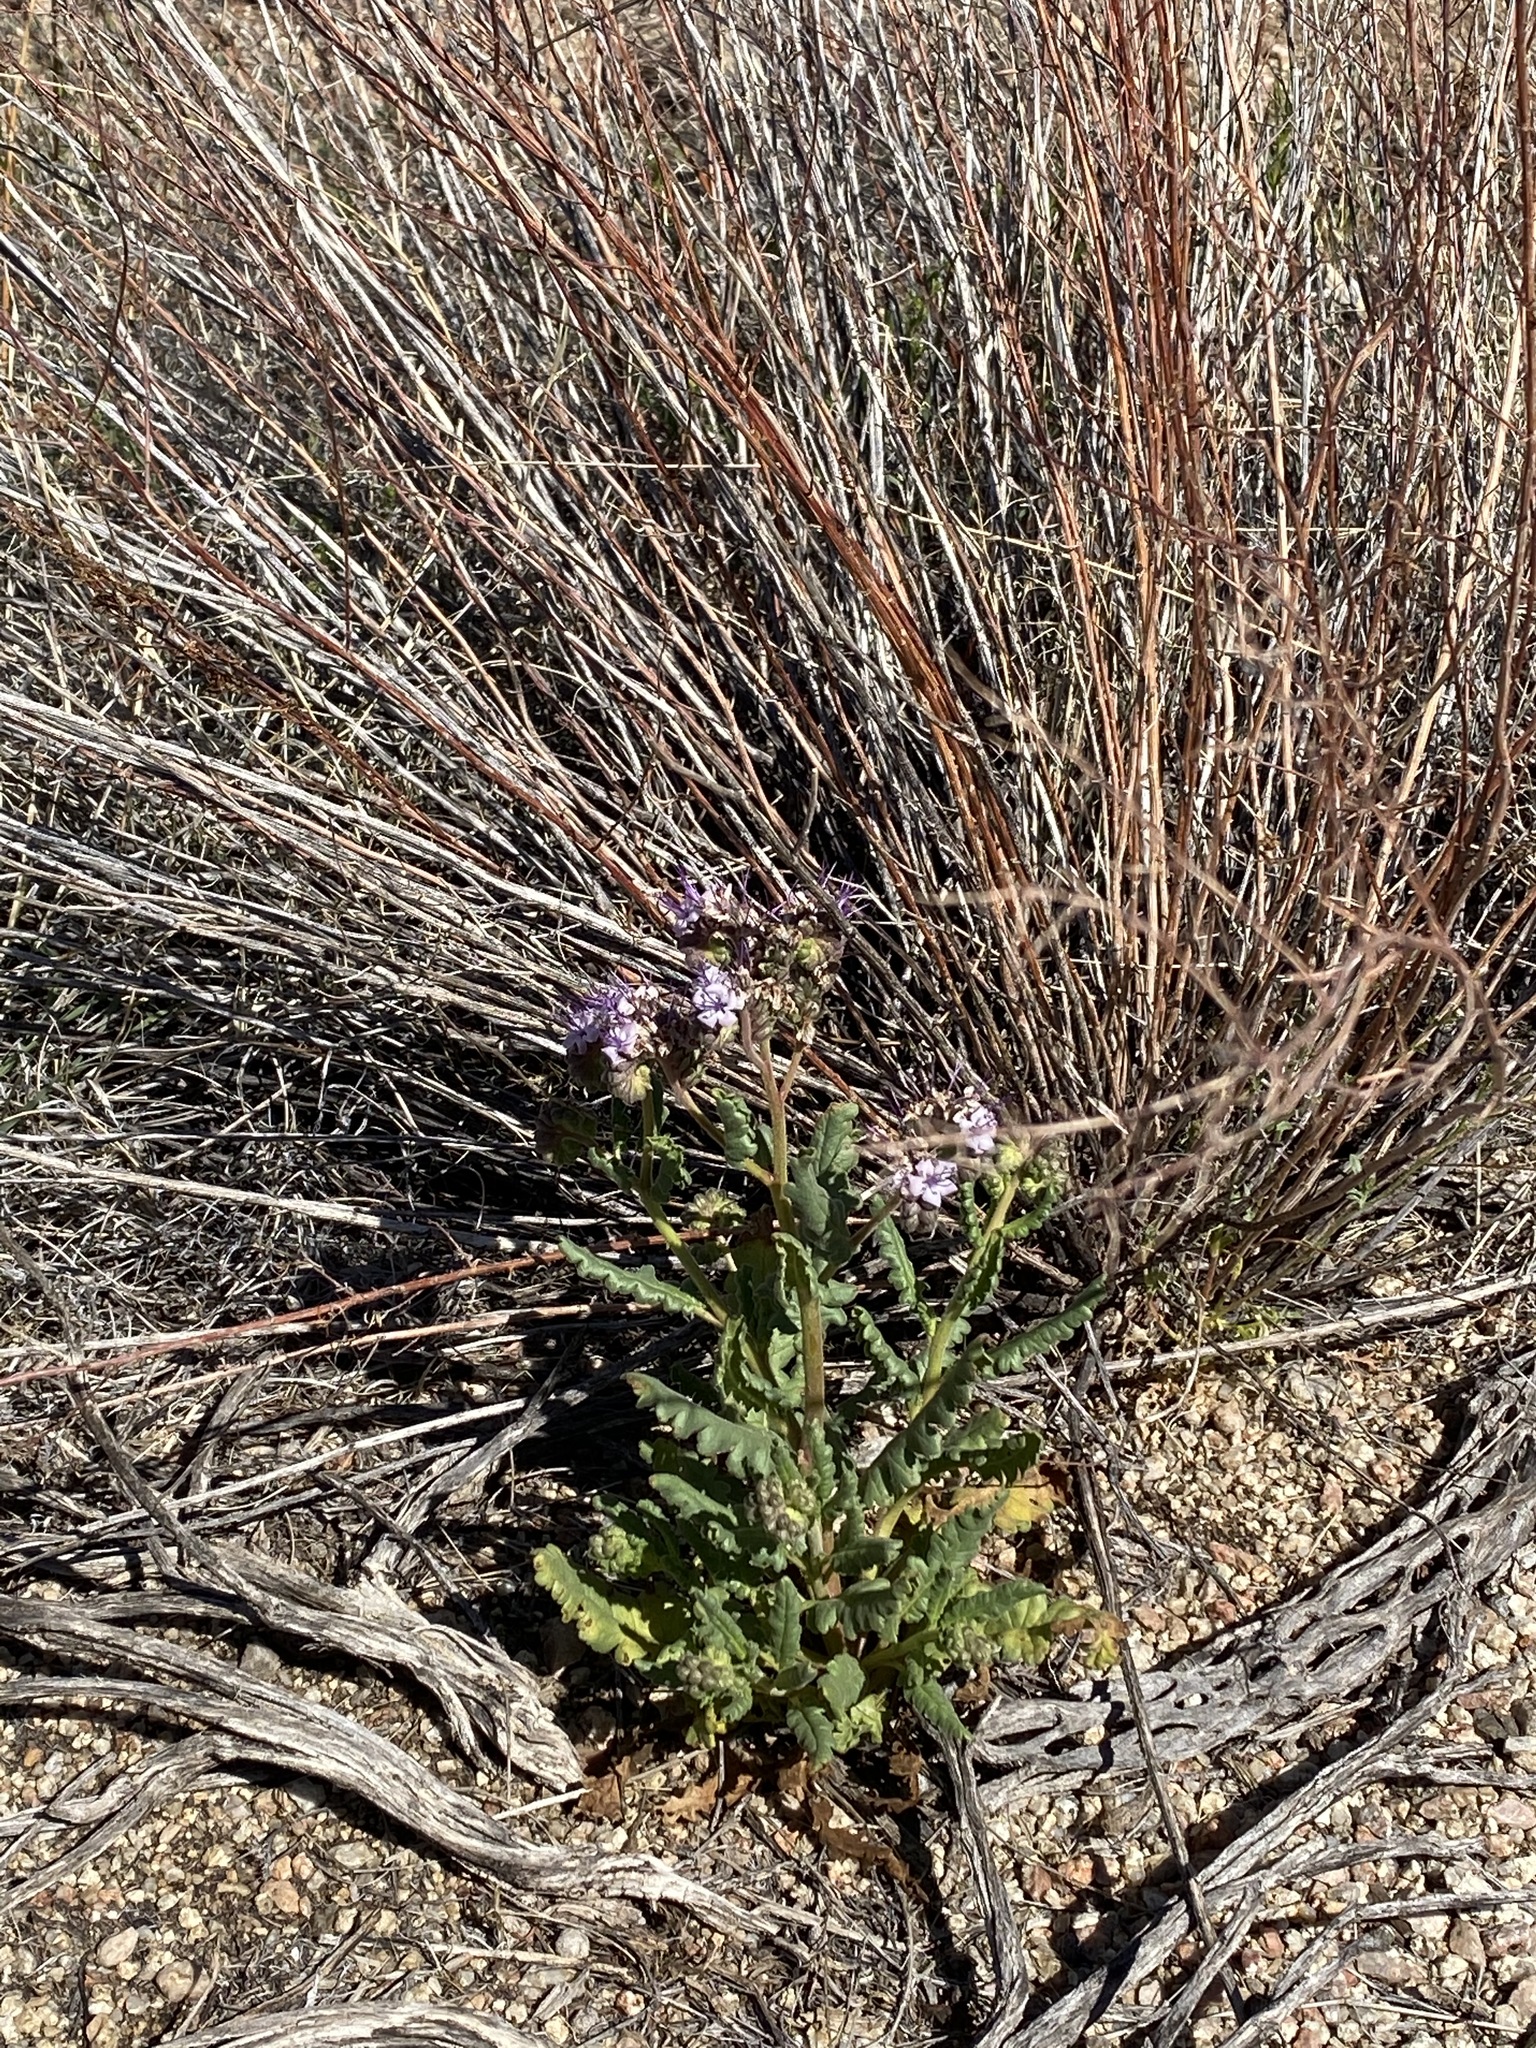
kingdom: Plantae
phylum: Tracheophyta
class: Magnoliopsida
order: Boraginales
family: Hydrophyllaceae
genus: Phacelia
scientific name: Phacelia integrifolia
